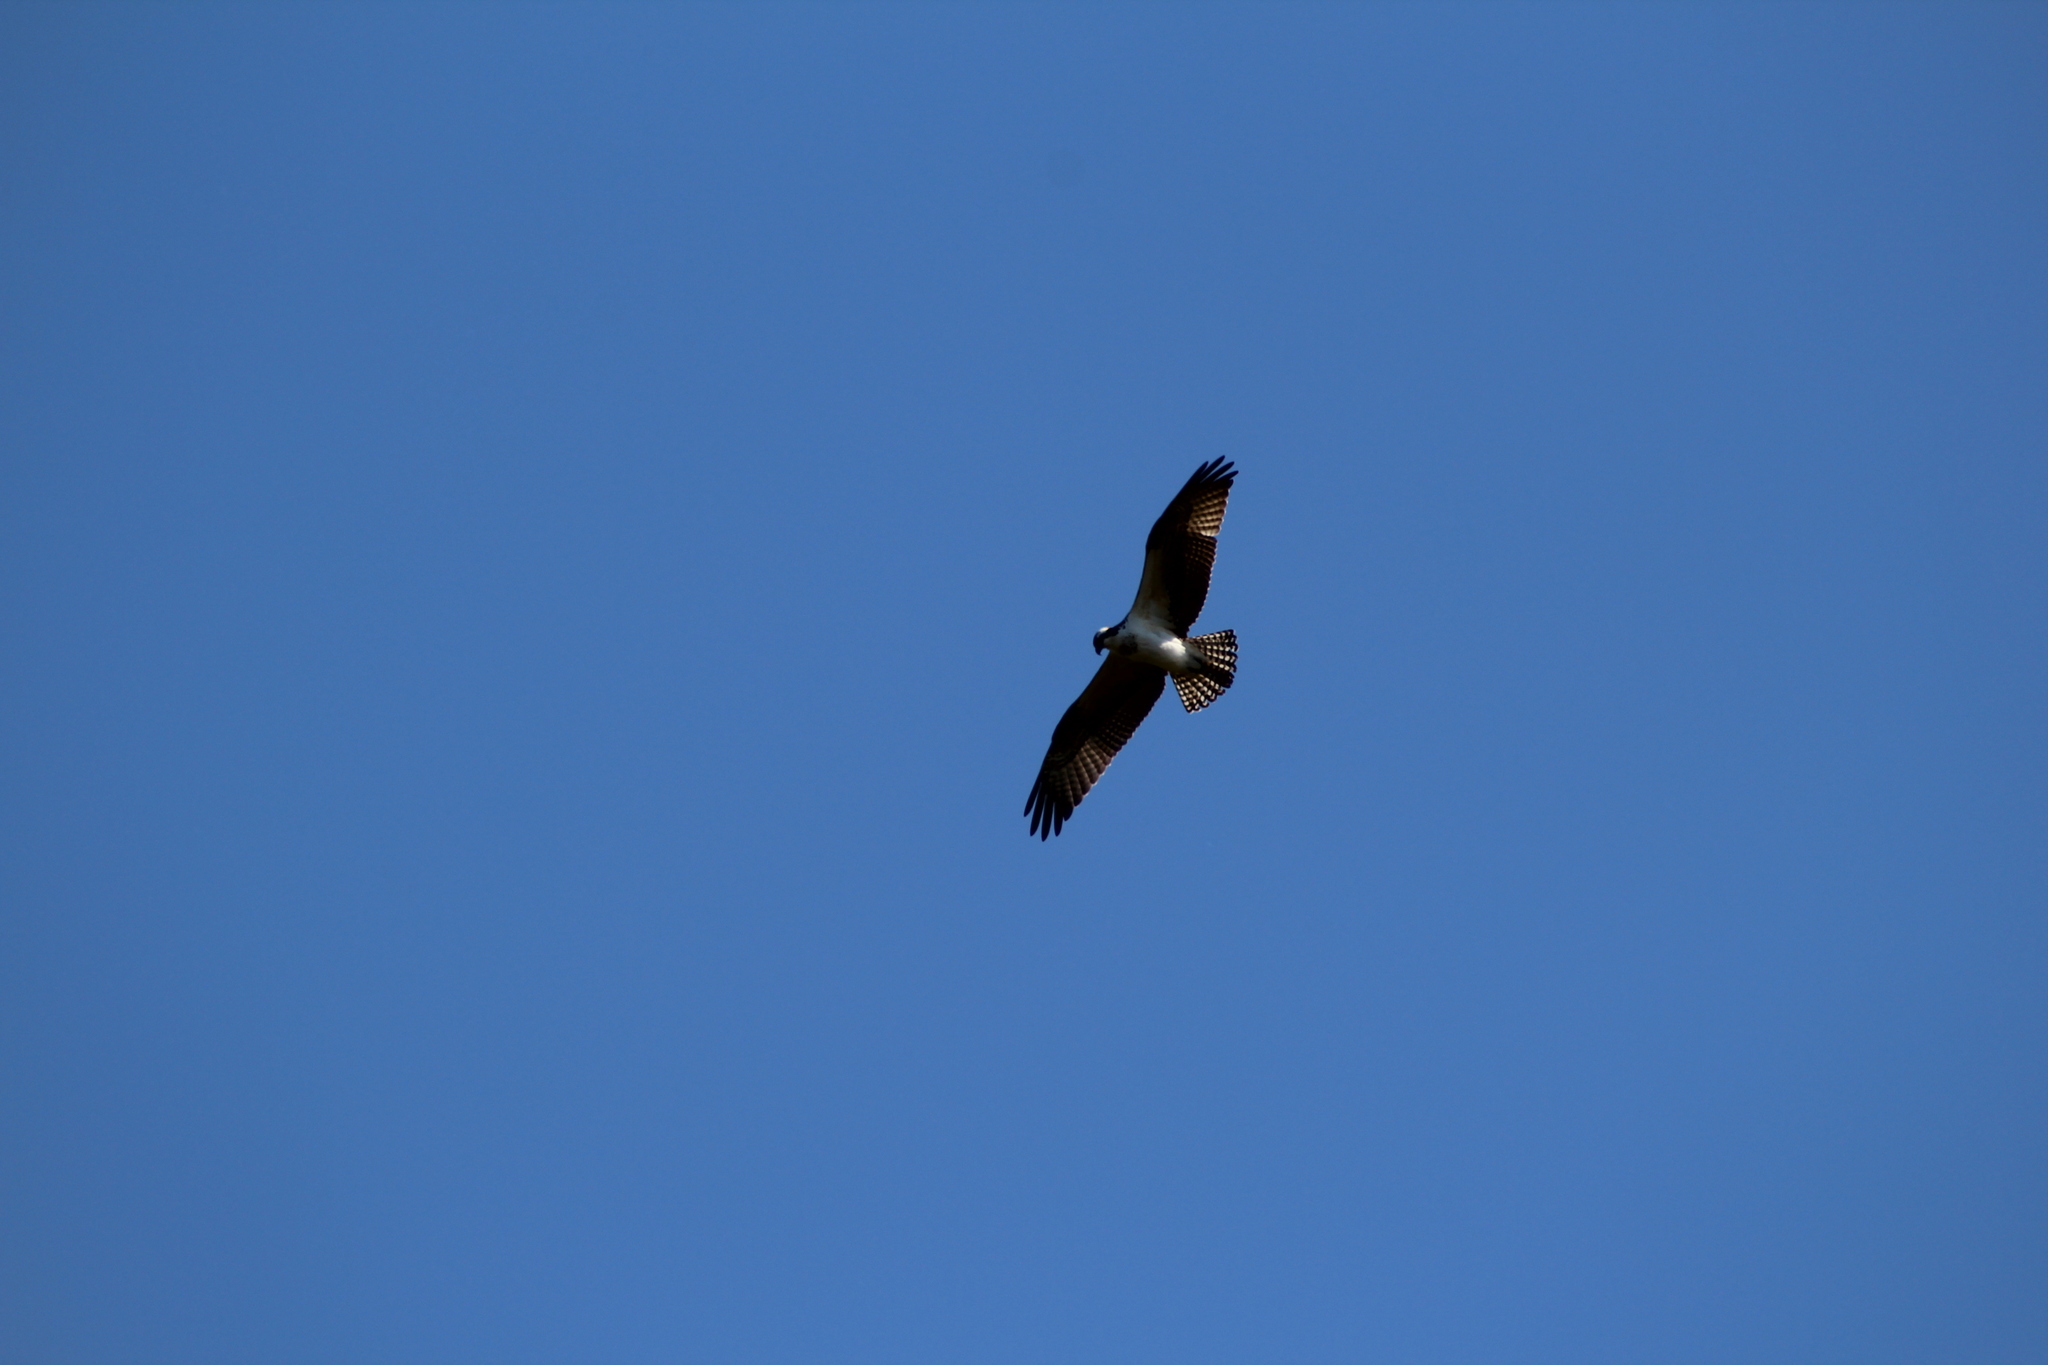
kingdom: Animalia
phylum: Chordata
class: Aves
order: Accipitriformes
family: Pandionidae
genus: Pandion
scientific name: Pandion haliaetus
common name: Osprey
